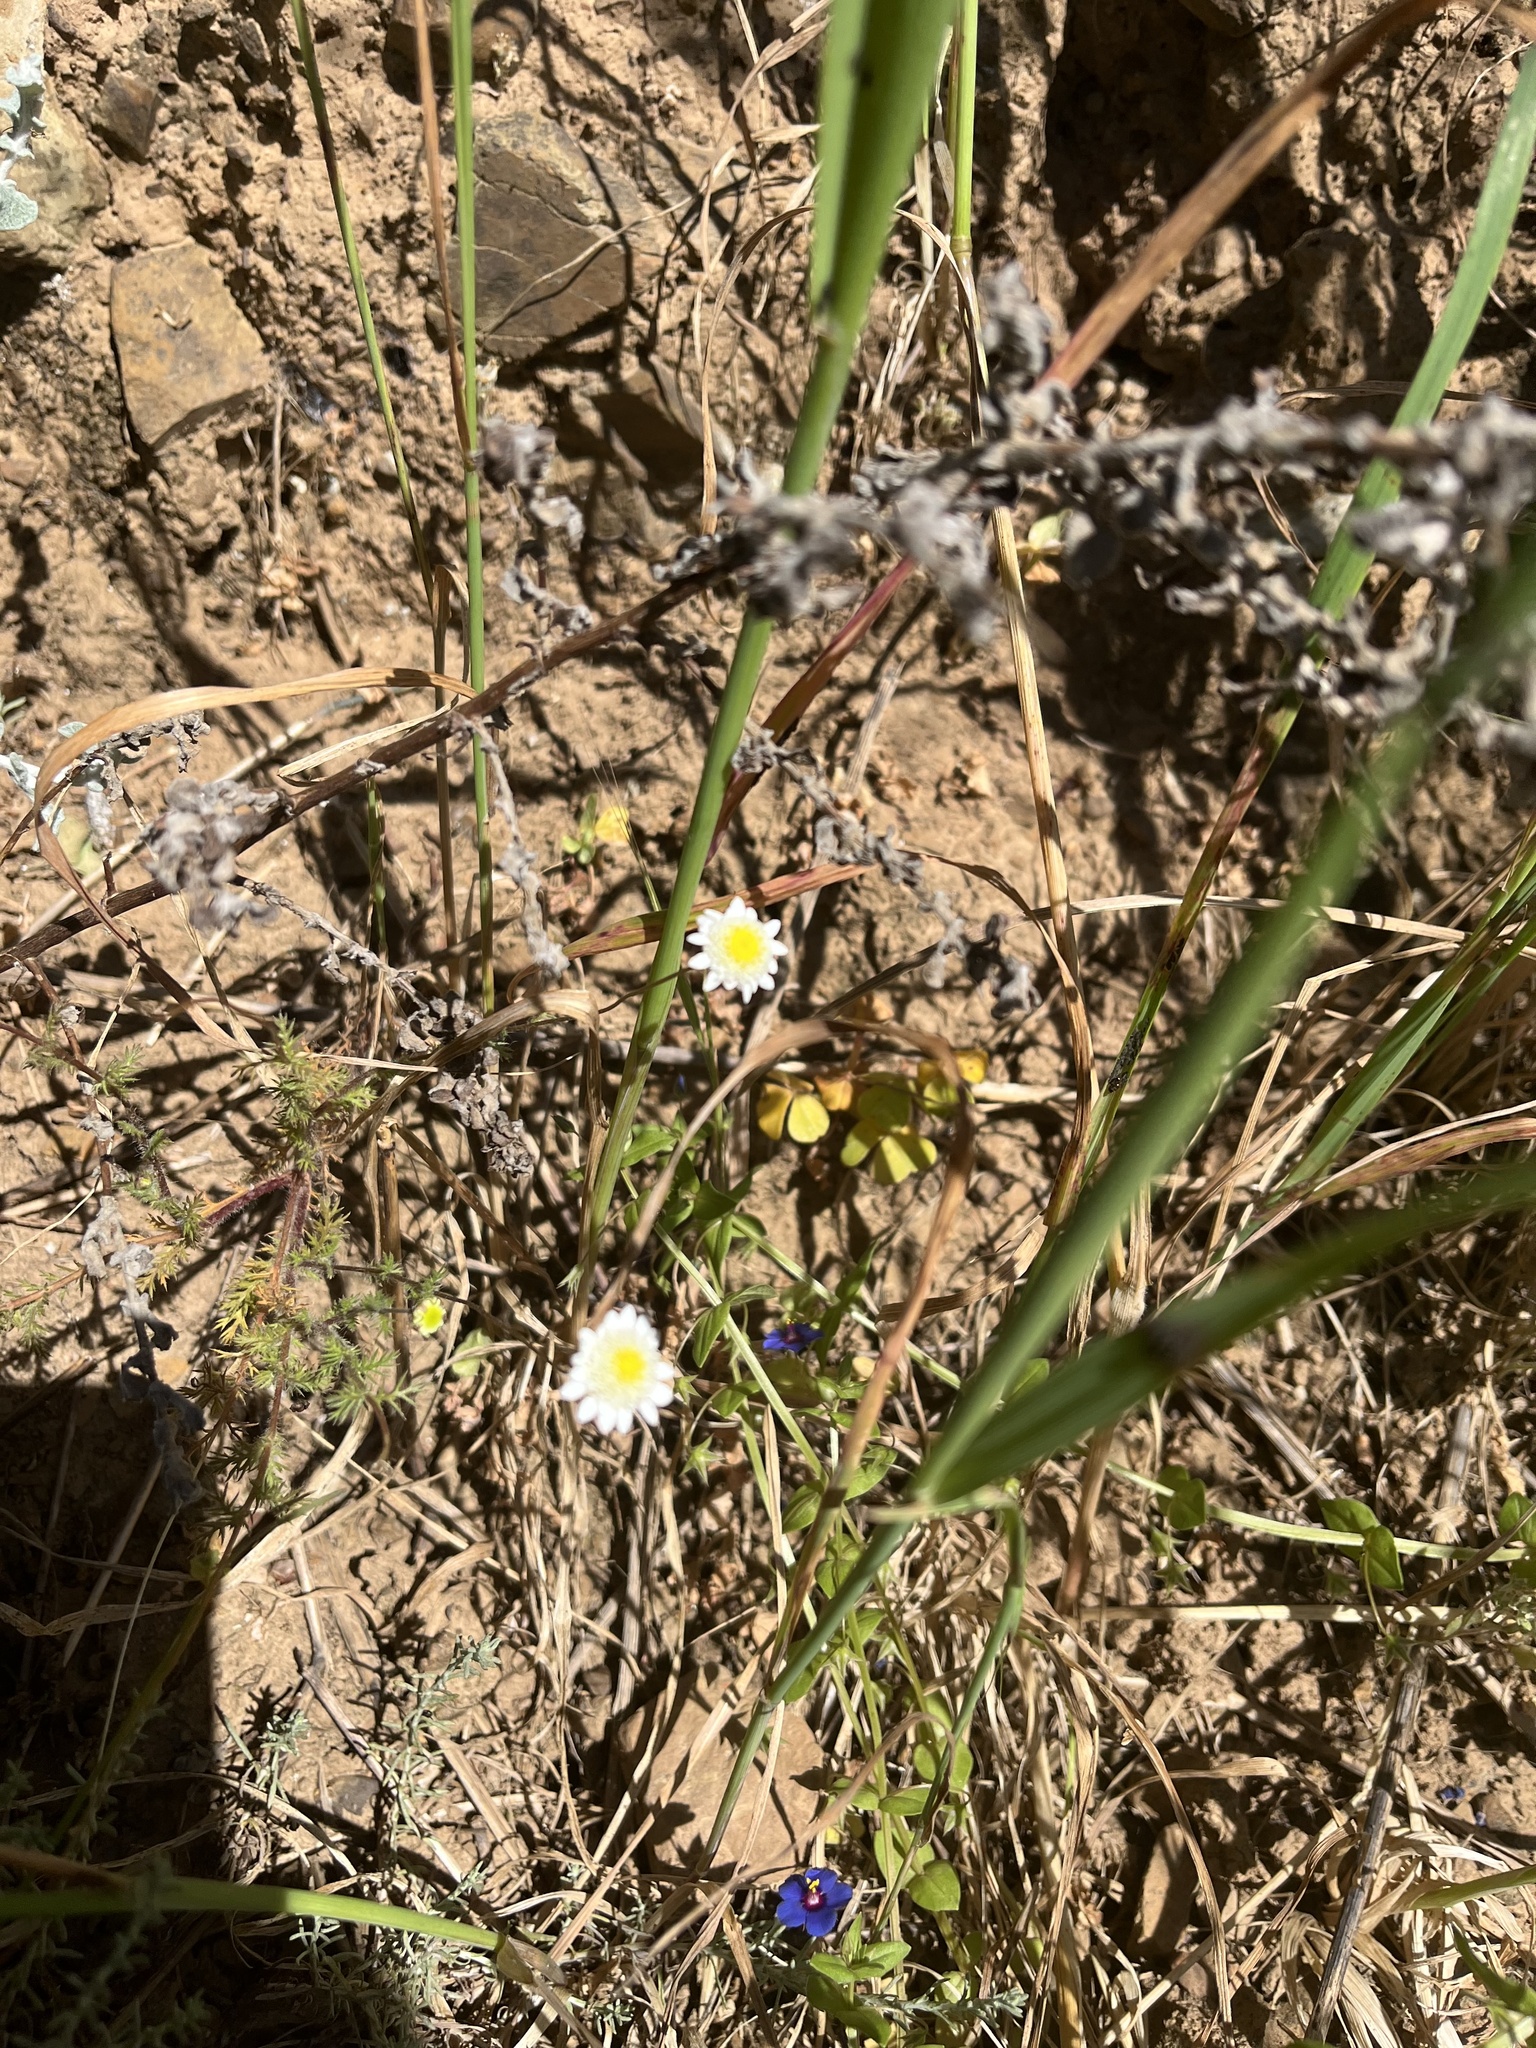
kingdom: Plantae
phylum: Tracheophyta
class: Magnoliopsida
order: Asterales
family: Asteraceae
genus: Cotula
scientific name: Cotula turbinata
